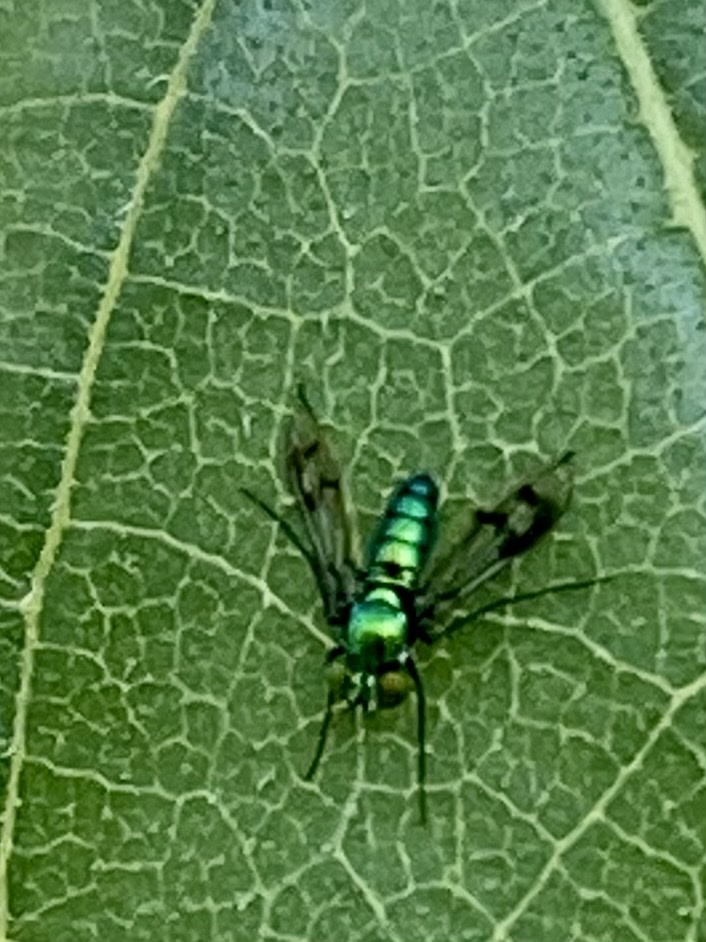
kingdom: Animalia
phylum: Arthropoda
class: Insecta
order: Diptera
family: Dolichopodidae
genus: Condylostylus
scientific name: Condylostylus occidentalis
